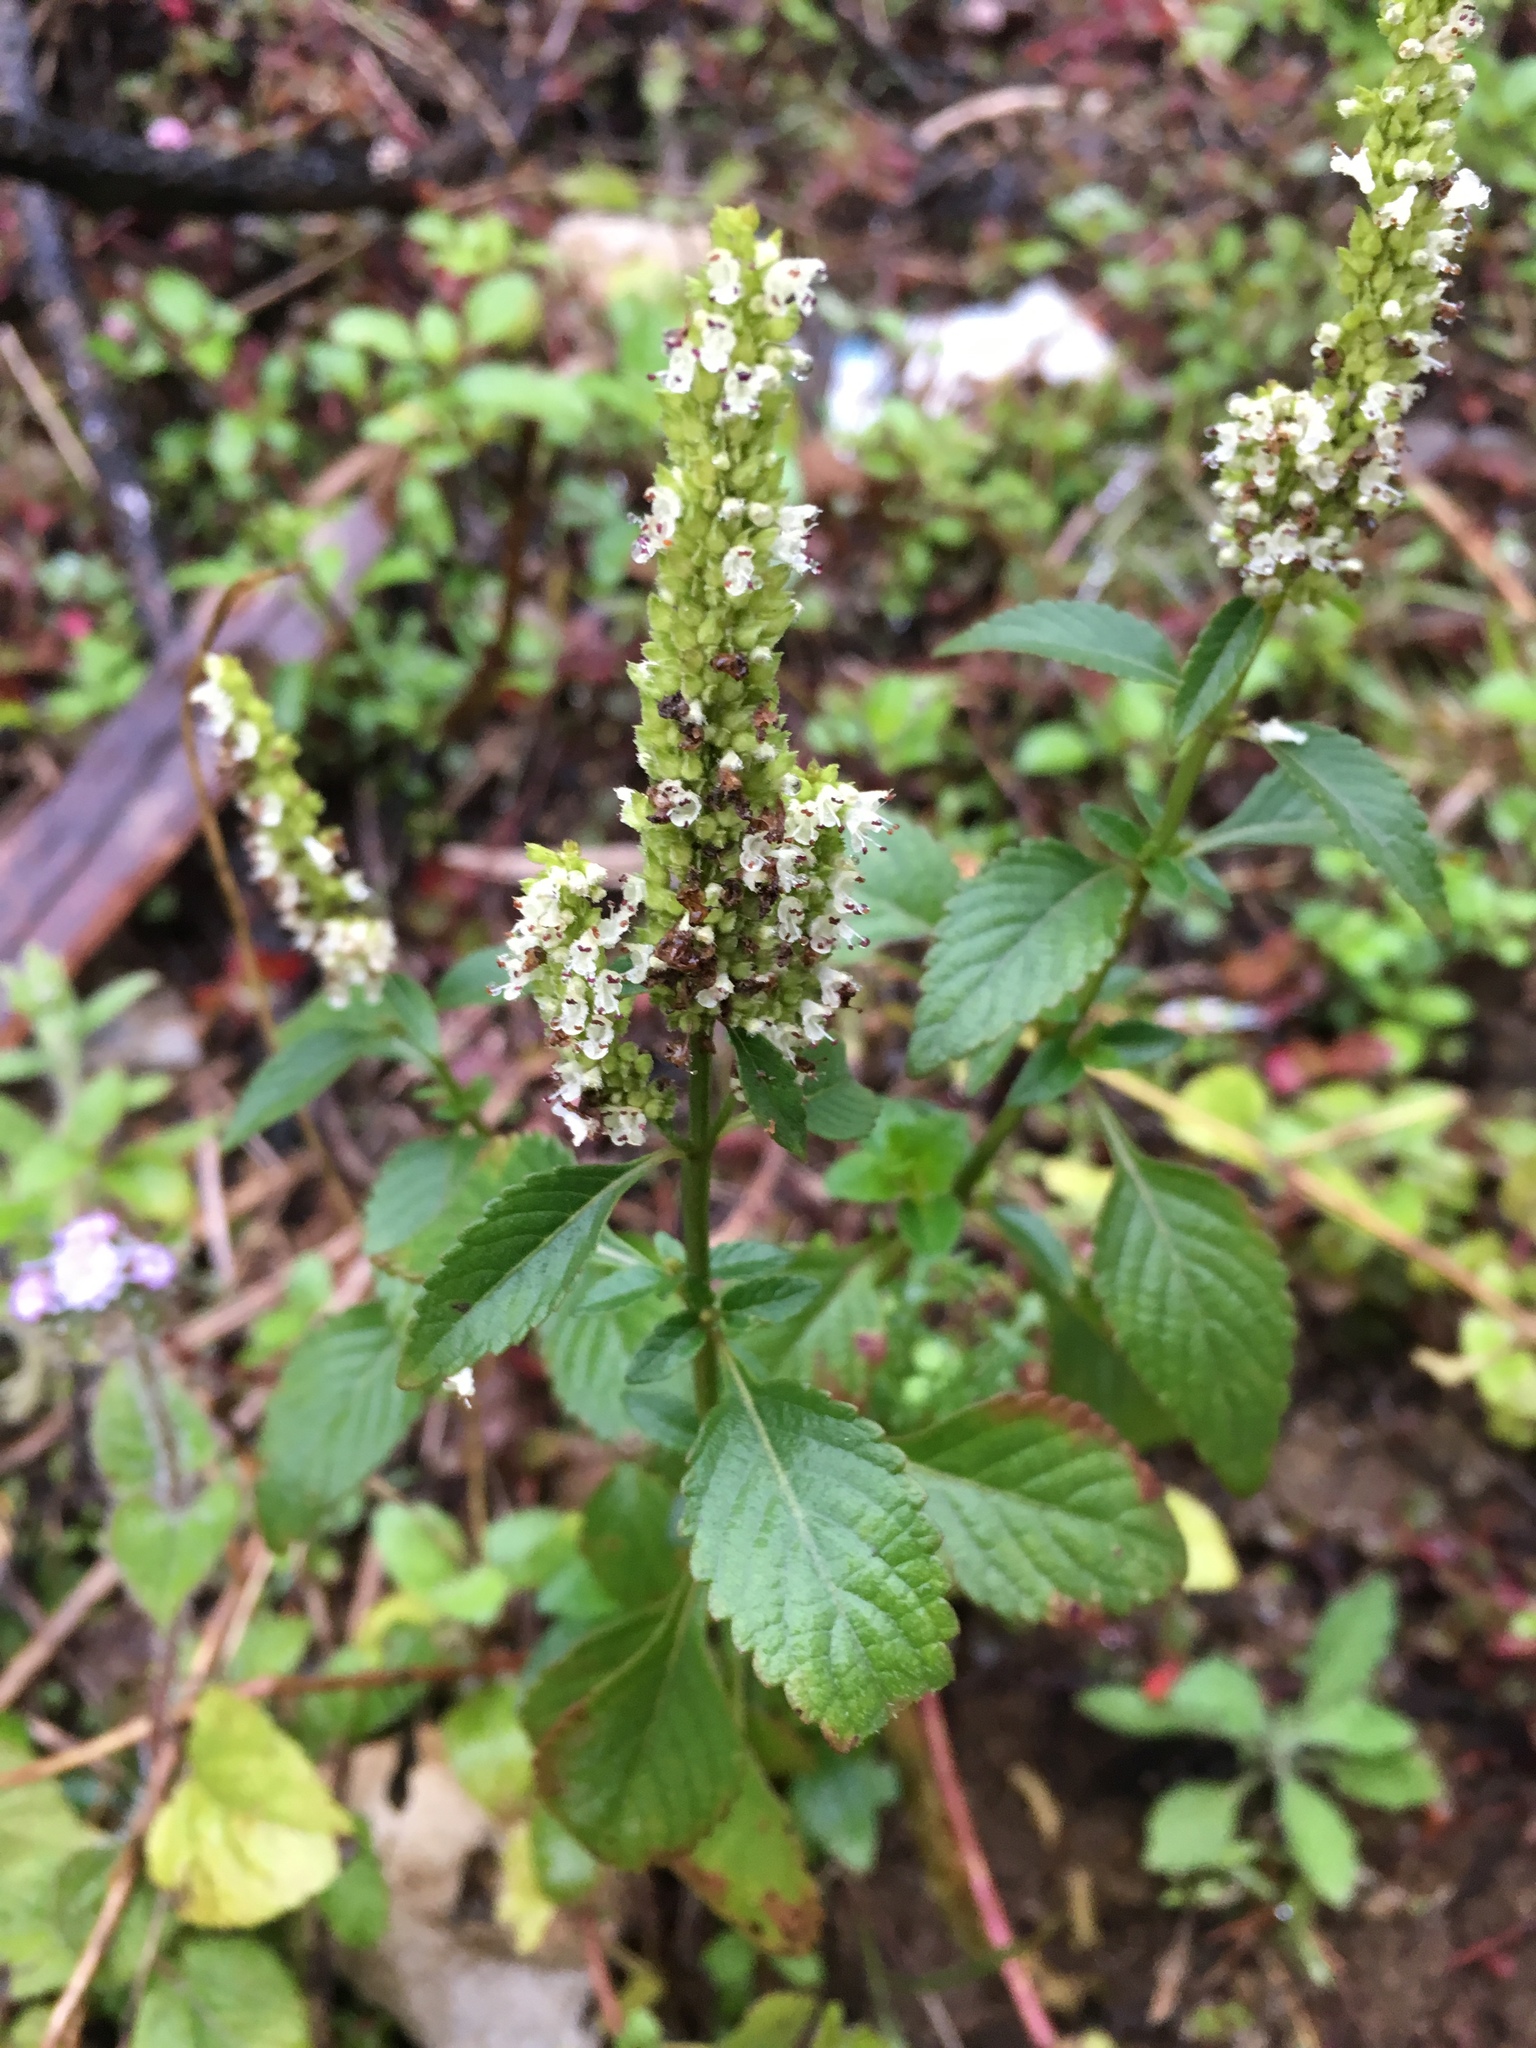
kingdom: Plantae
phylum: Tracheophyta
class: Magnoliopsida
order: Lamiales
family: Lamiaceae
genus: Elsholtzia
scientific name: Elsholtzia blanda
